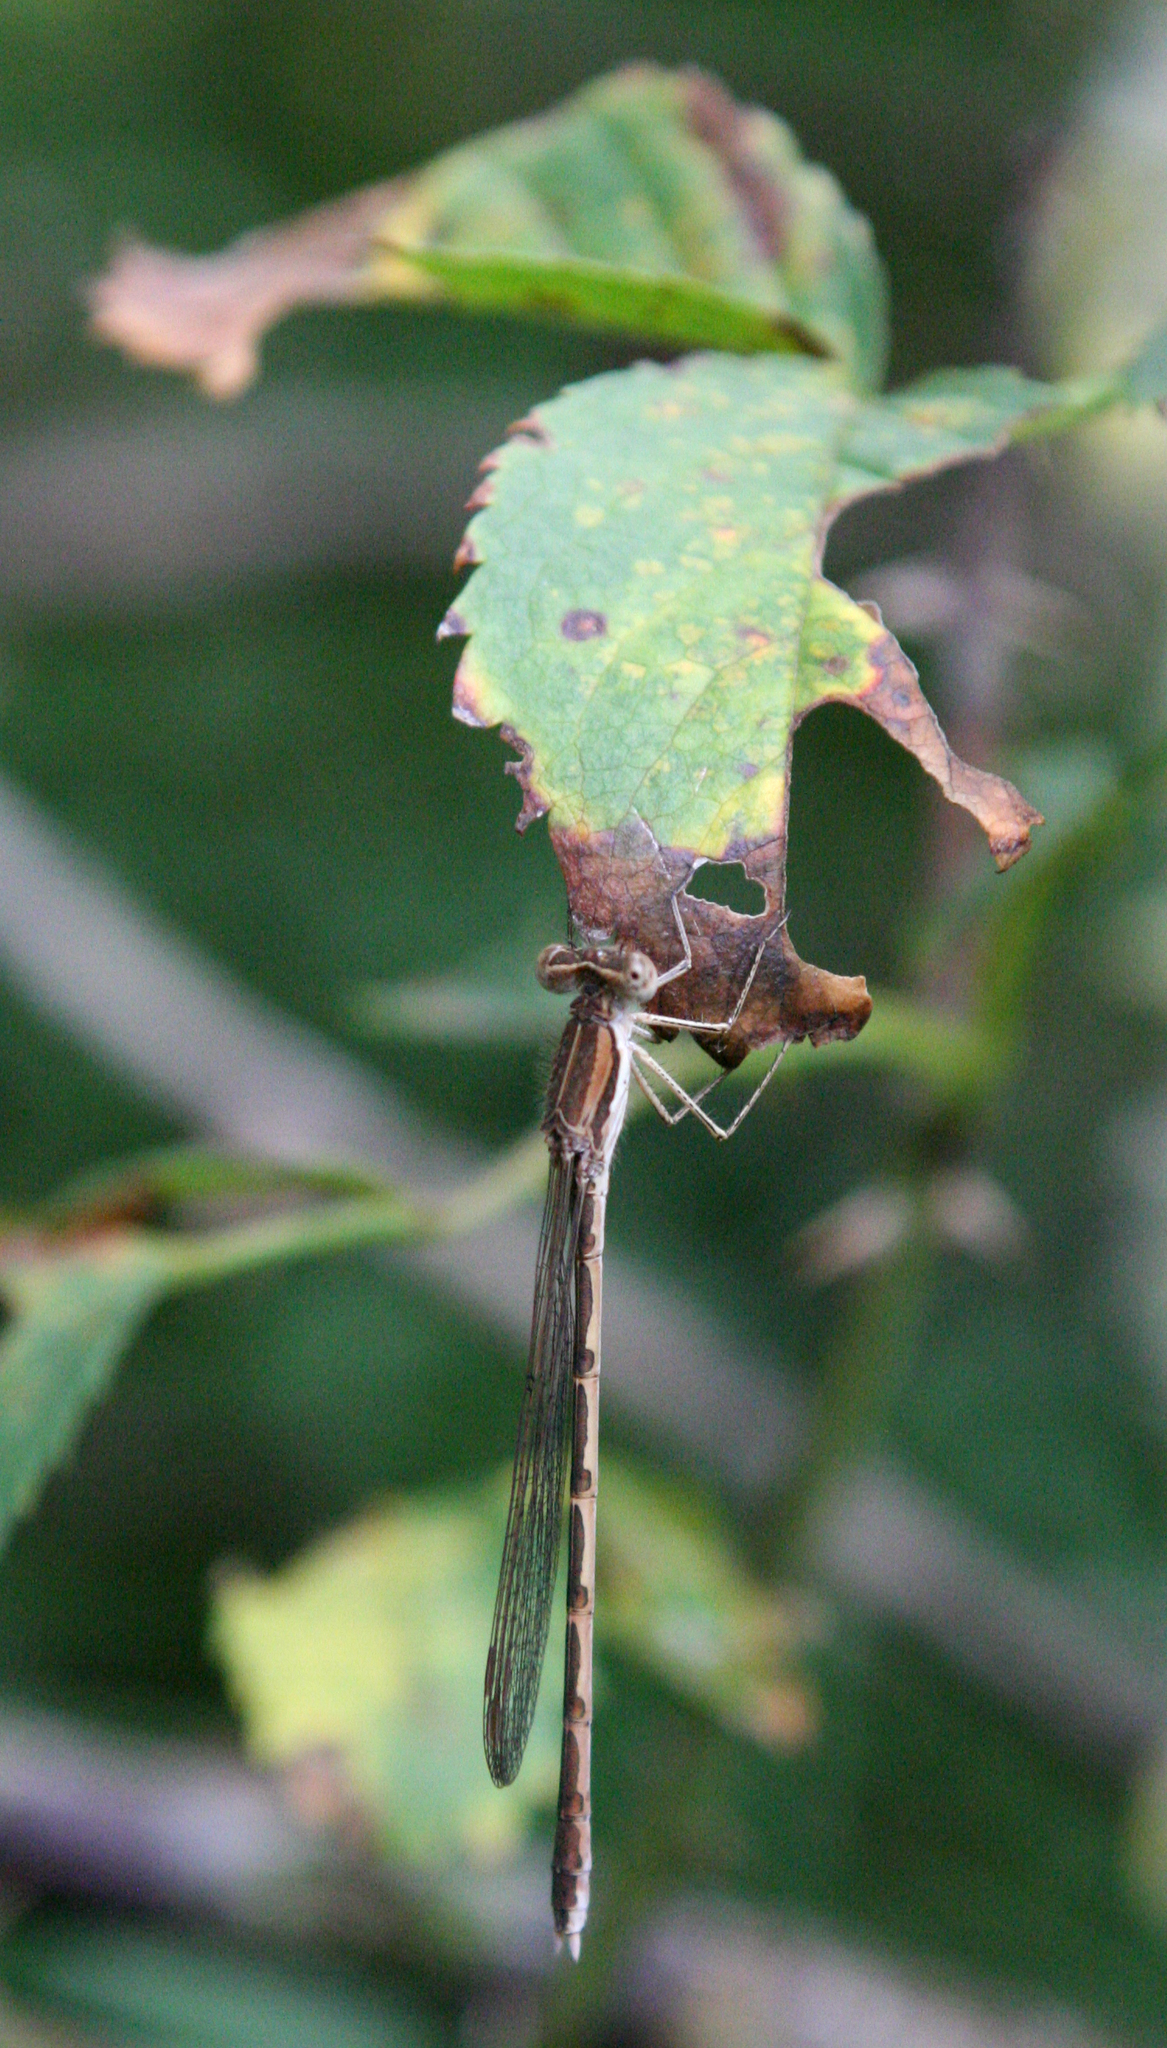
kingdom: Animalia
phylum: Arthropoda
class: Insecta
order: Odonata
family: Lestidae
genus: Sympecma
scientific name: Sympecma fusca
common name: Common winter damsel
